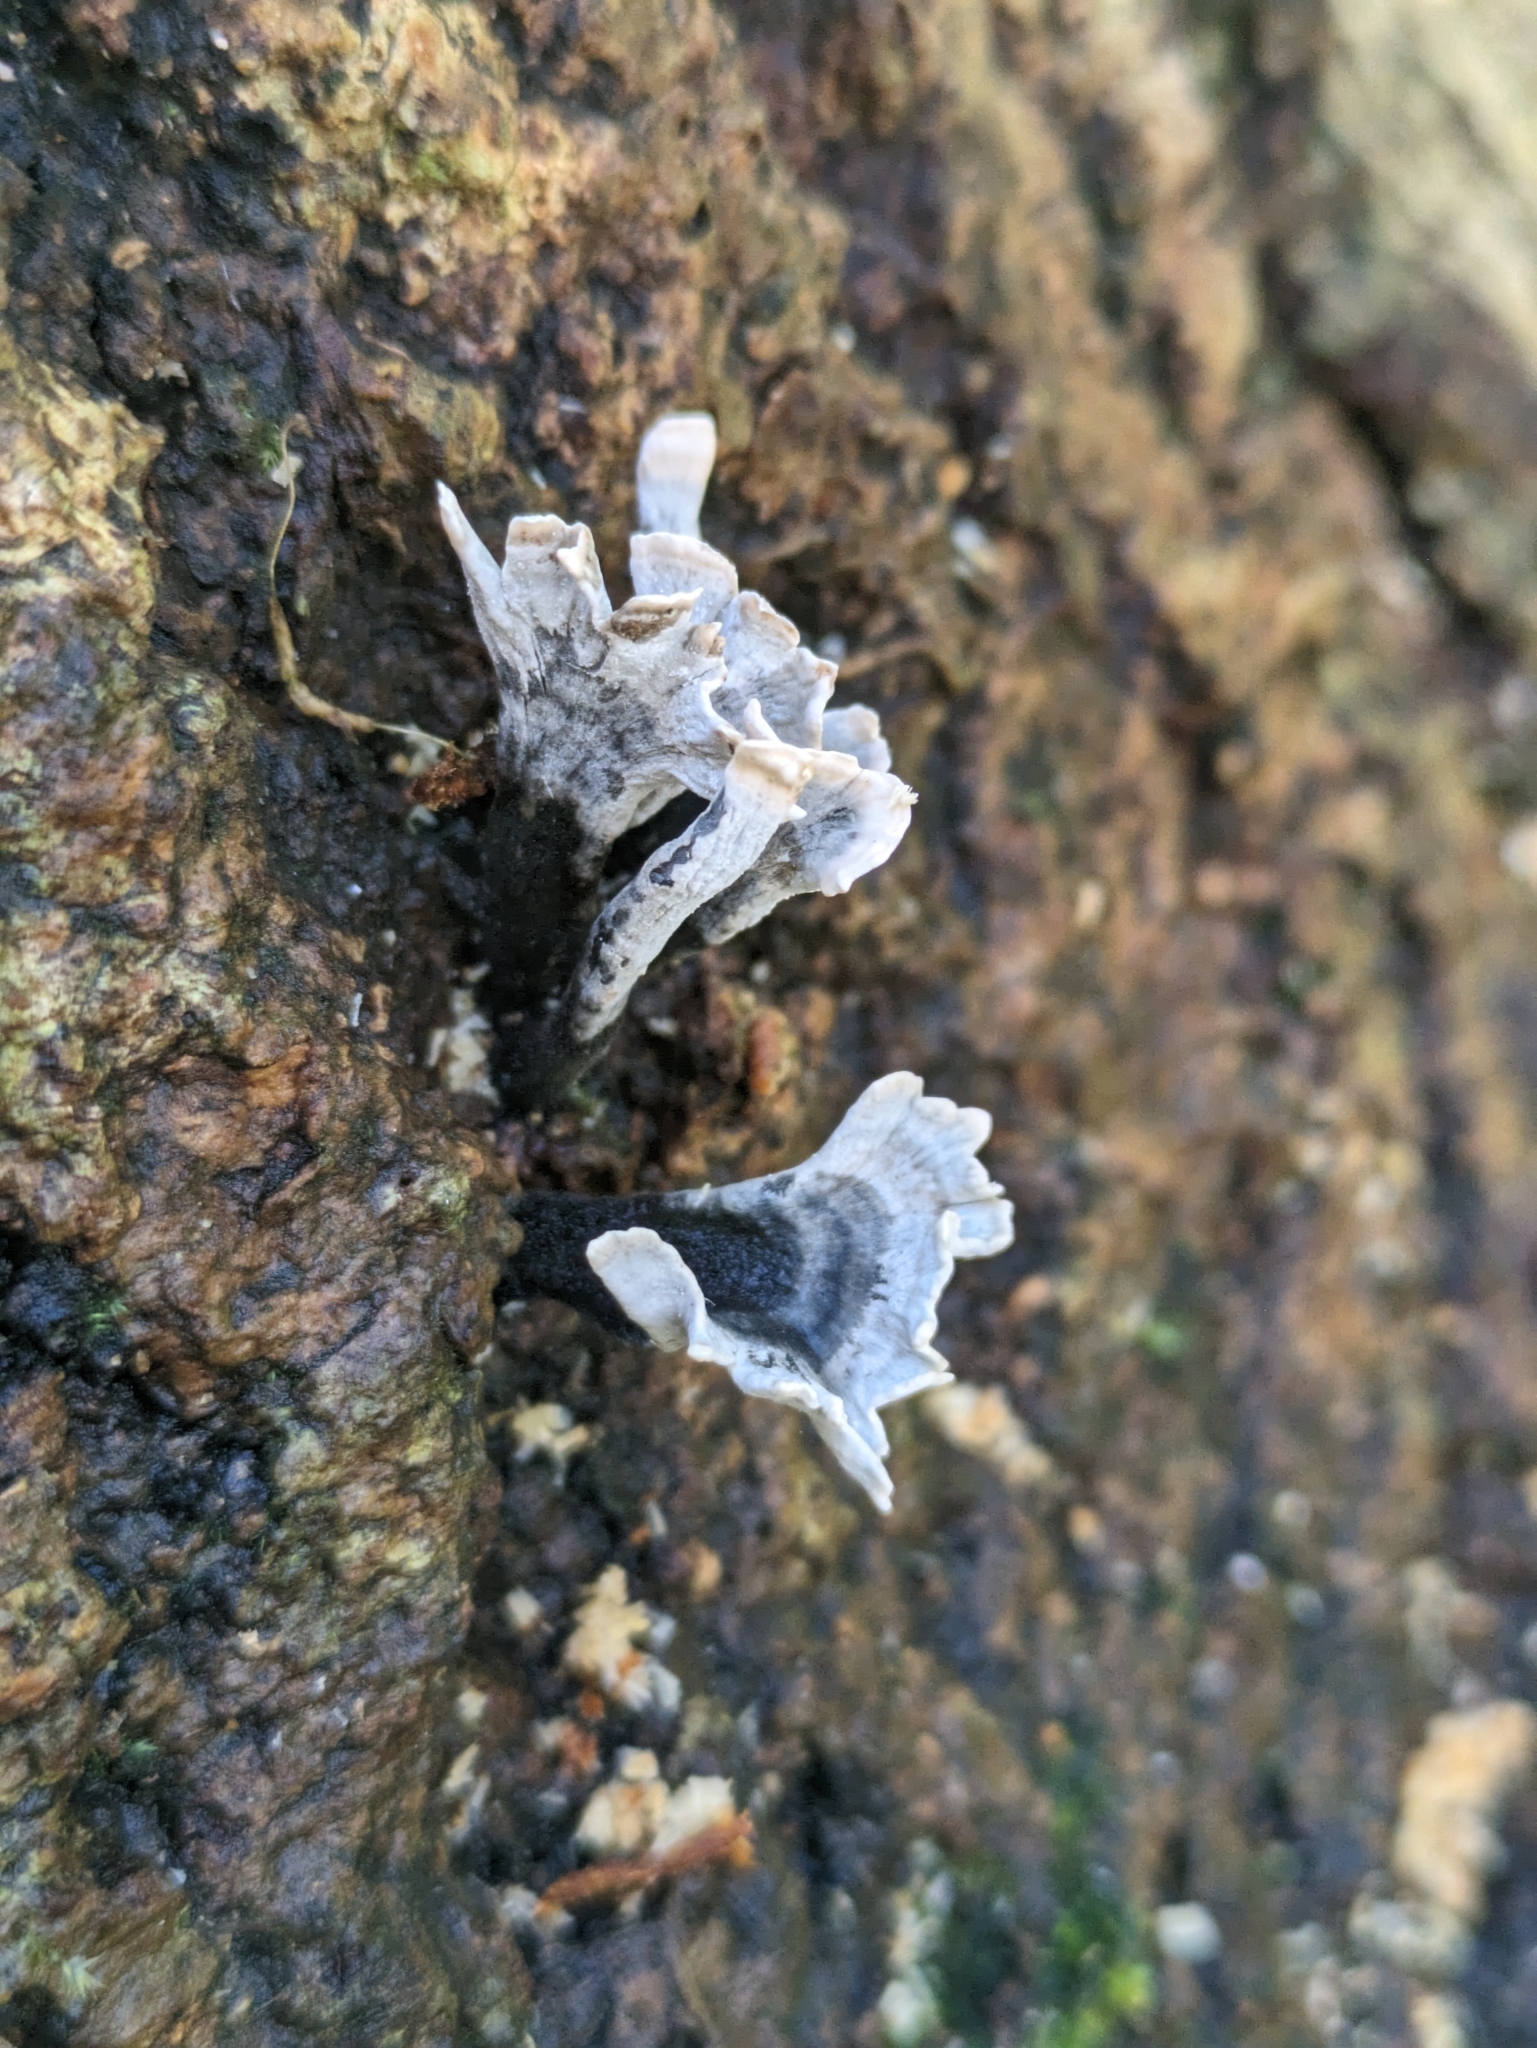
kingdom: Fungi
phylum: Ascomycota
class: Sordariomycetes
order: Xylariales
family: Xylariaceae
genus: Xylaria
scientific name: Xylaria hypoxylon
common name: Candle-snuff fungus
